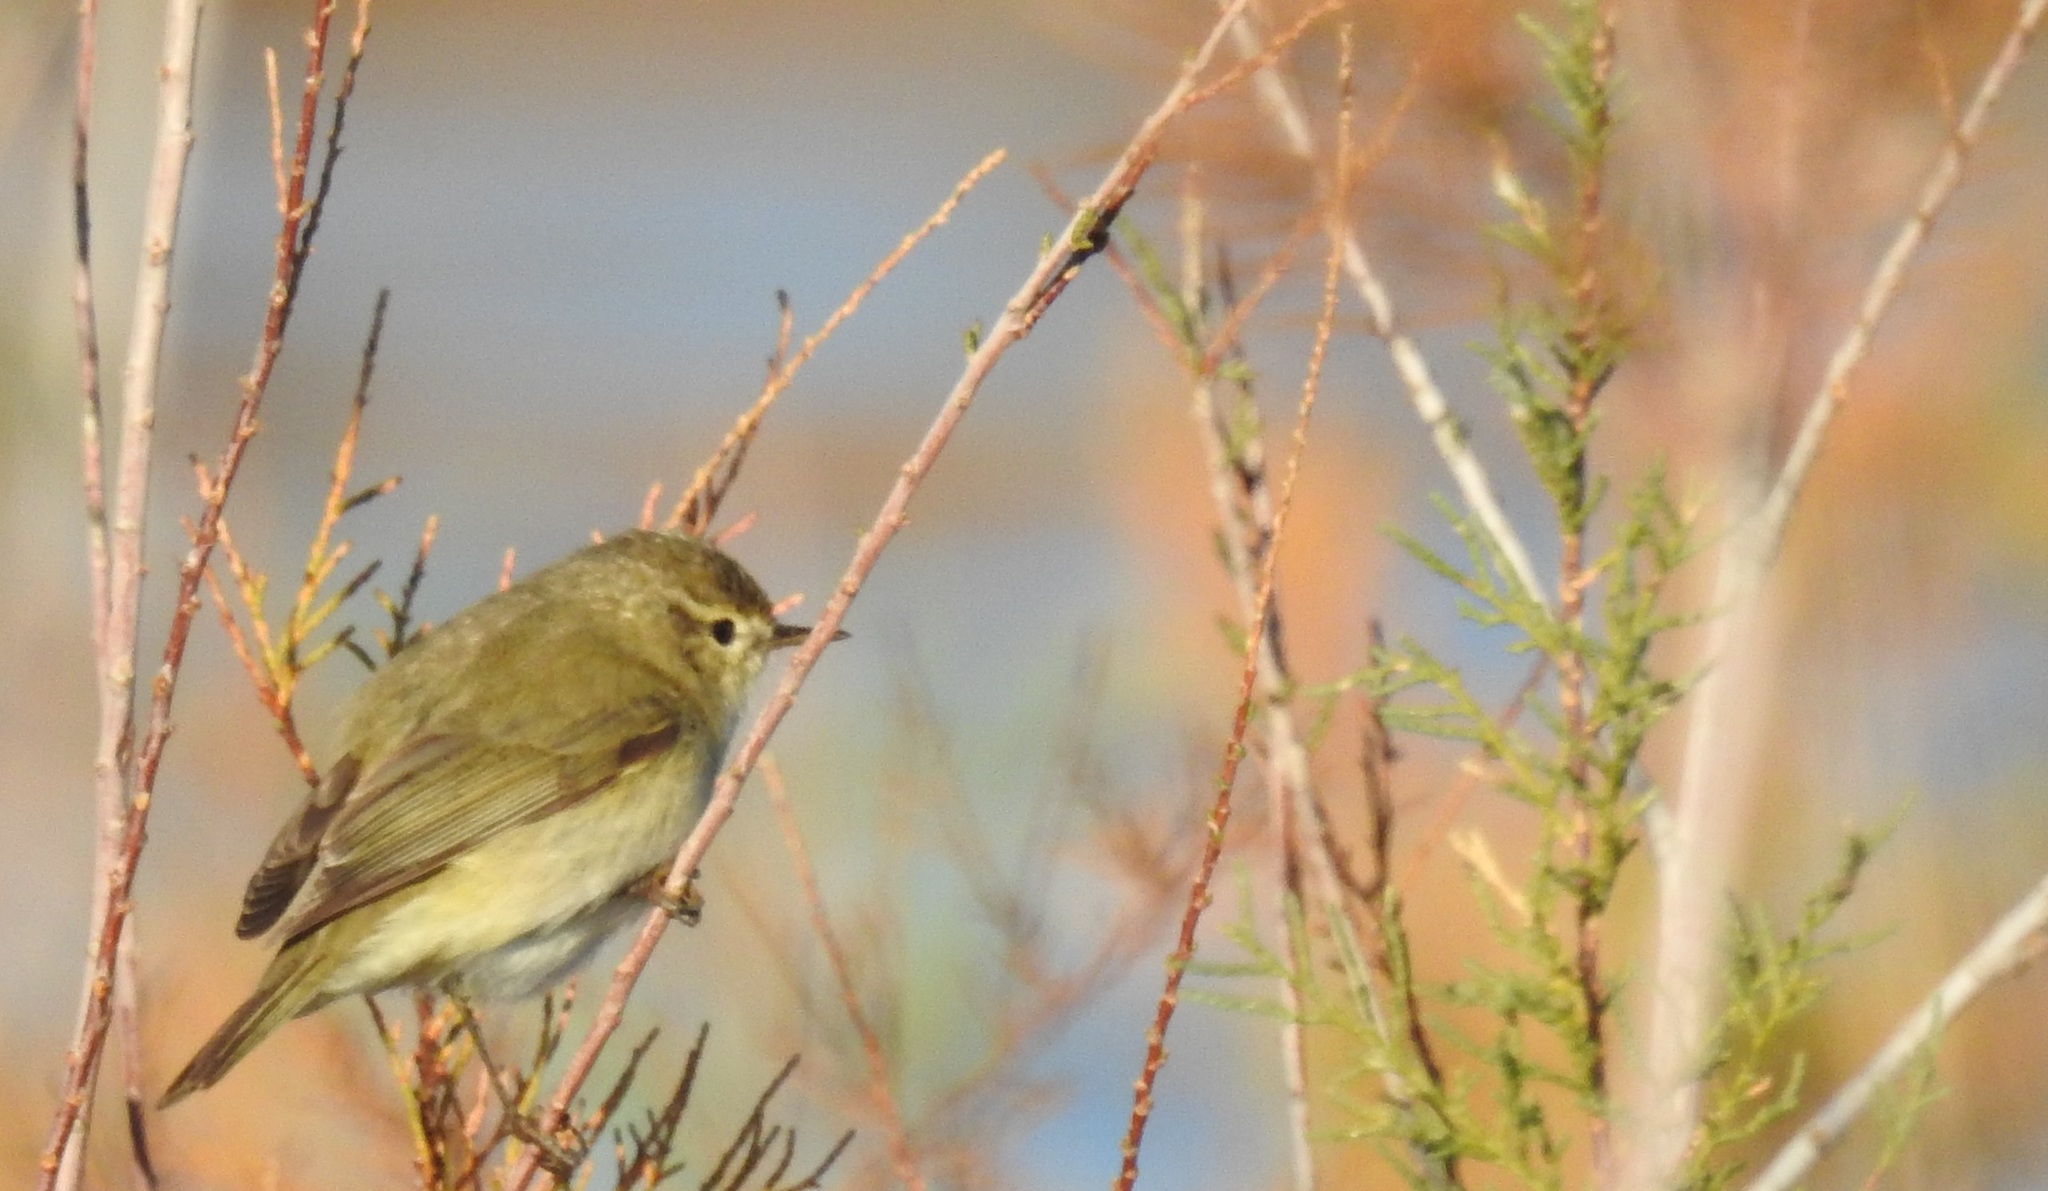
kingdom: Animalia
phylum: Chordata
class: Aves
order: Passeriformes
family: Phylloscopidae
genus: Phylloscopus
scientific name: Phylloscopus collybita
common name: Common chiffchaff
